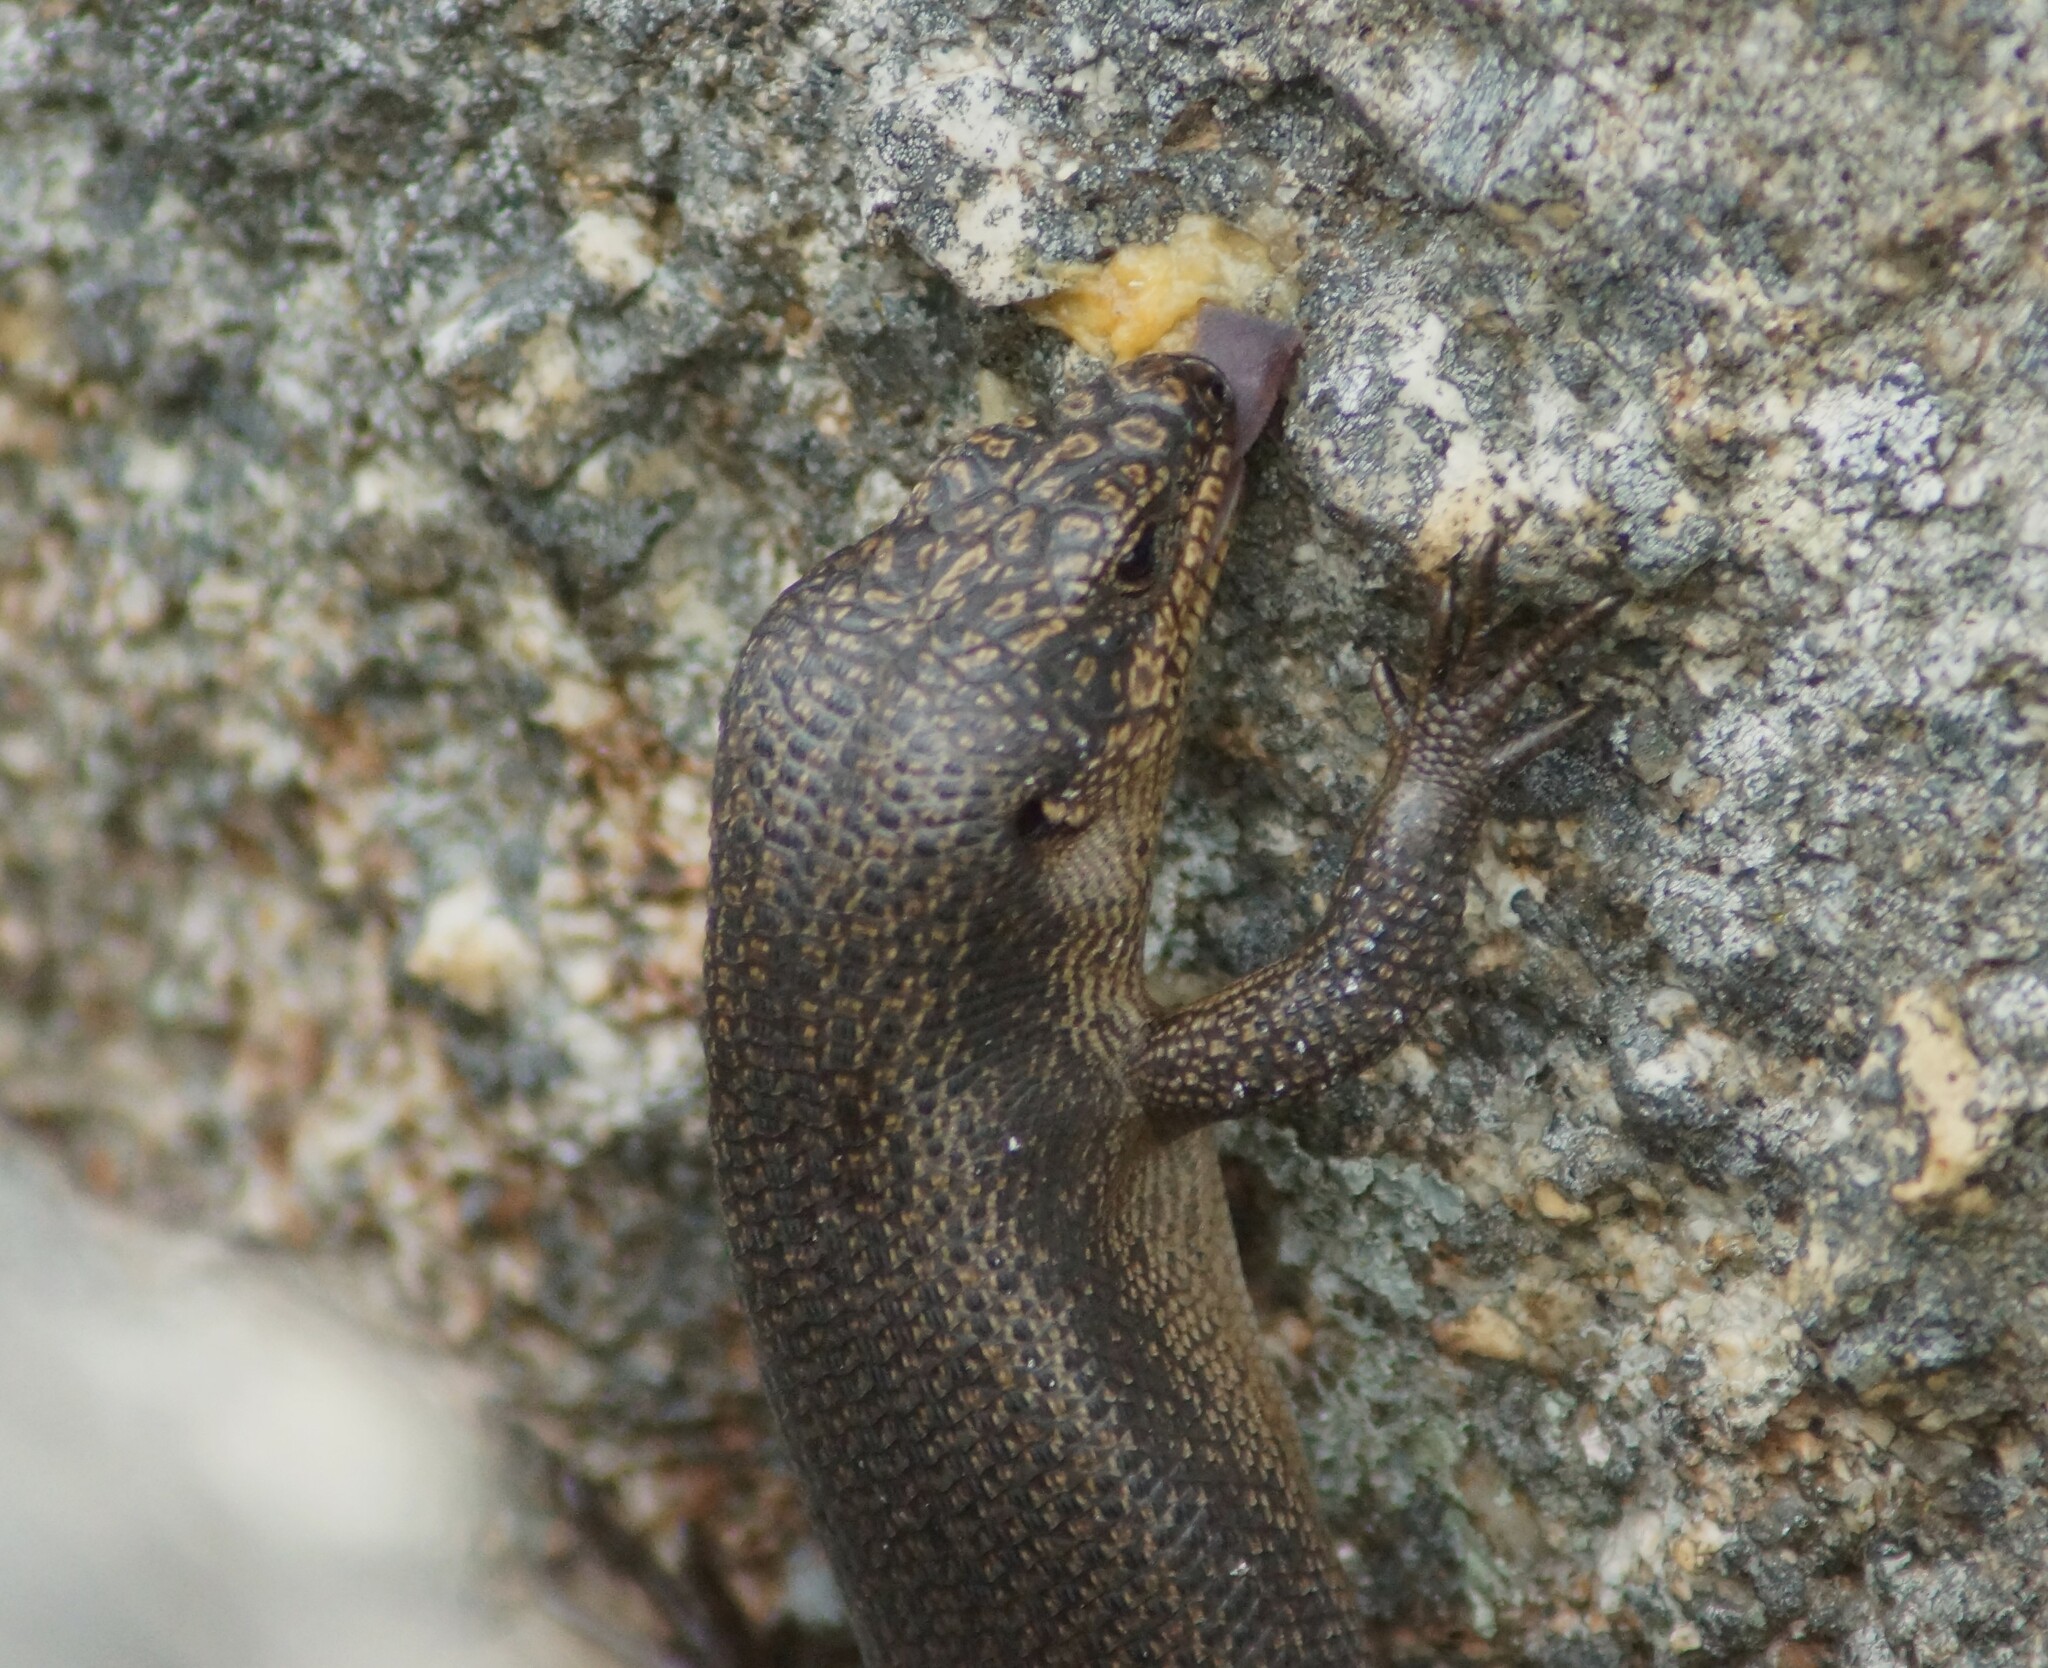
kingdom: Animalia
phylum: Chordata
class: Squamata
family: Scincidae
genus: Egernia
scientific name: Egernia saxatilis
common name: Black crevice-skink
